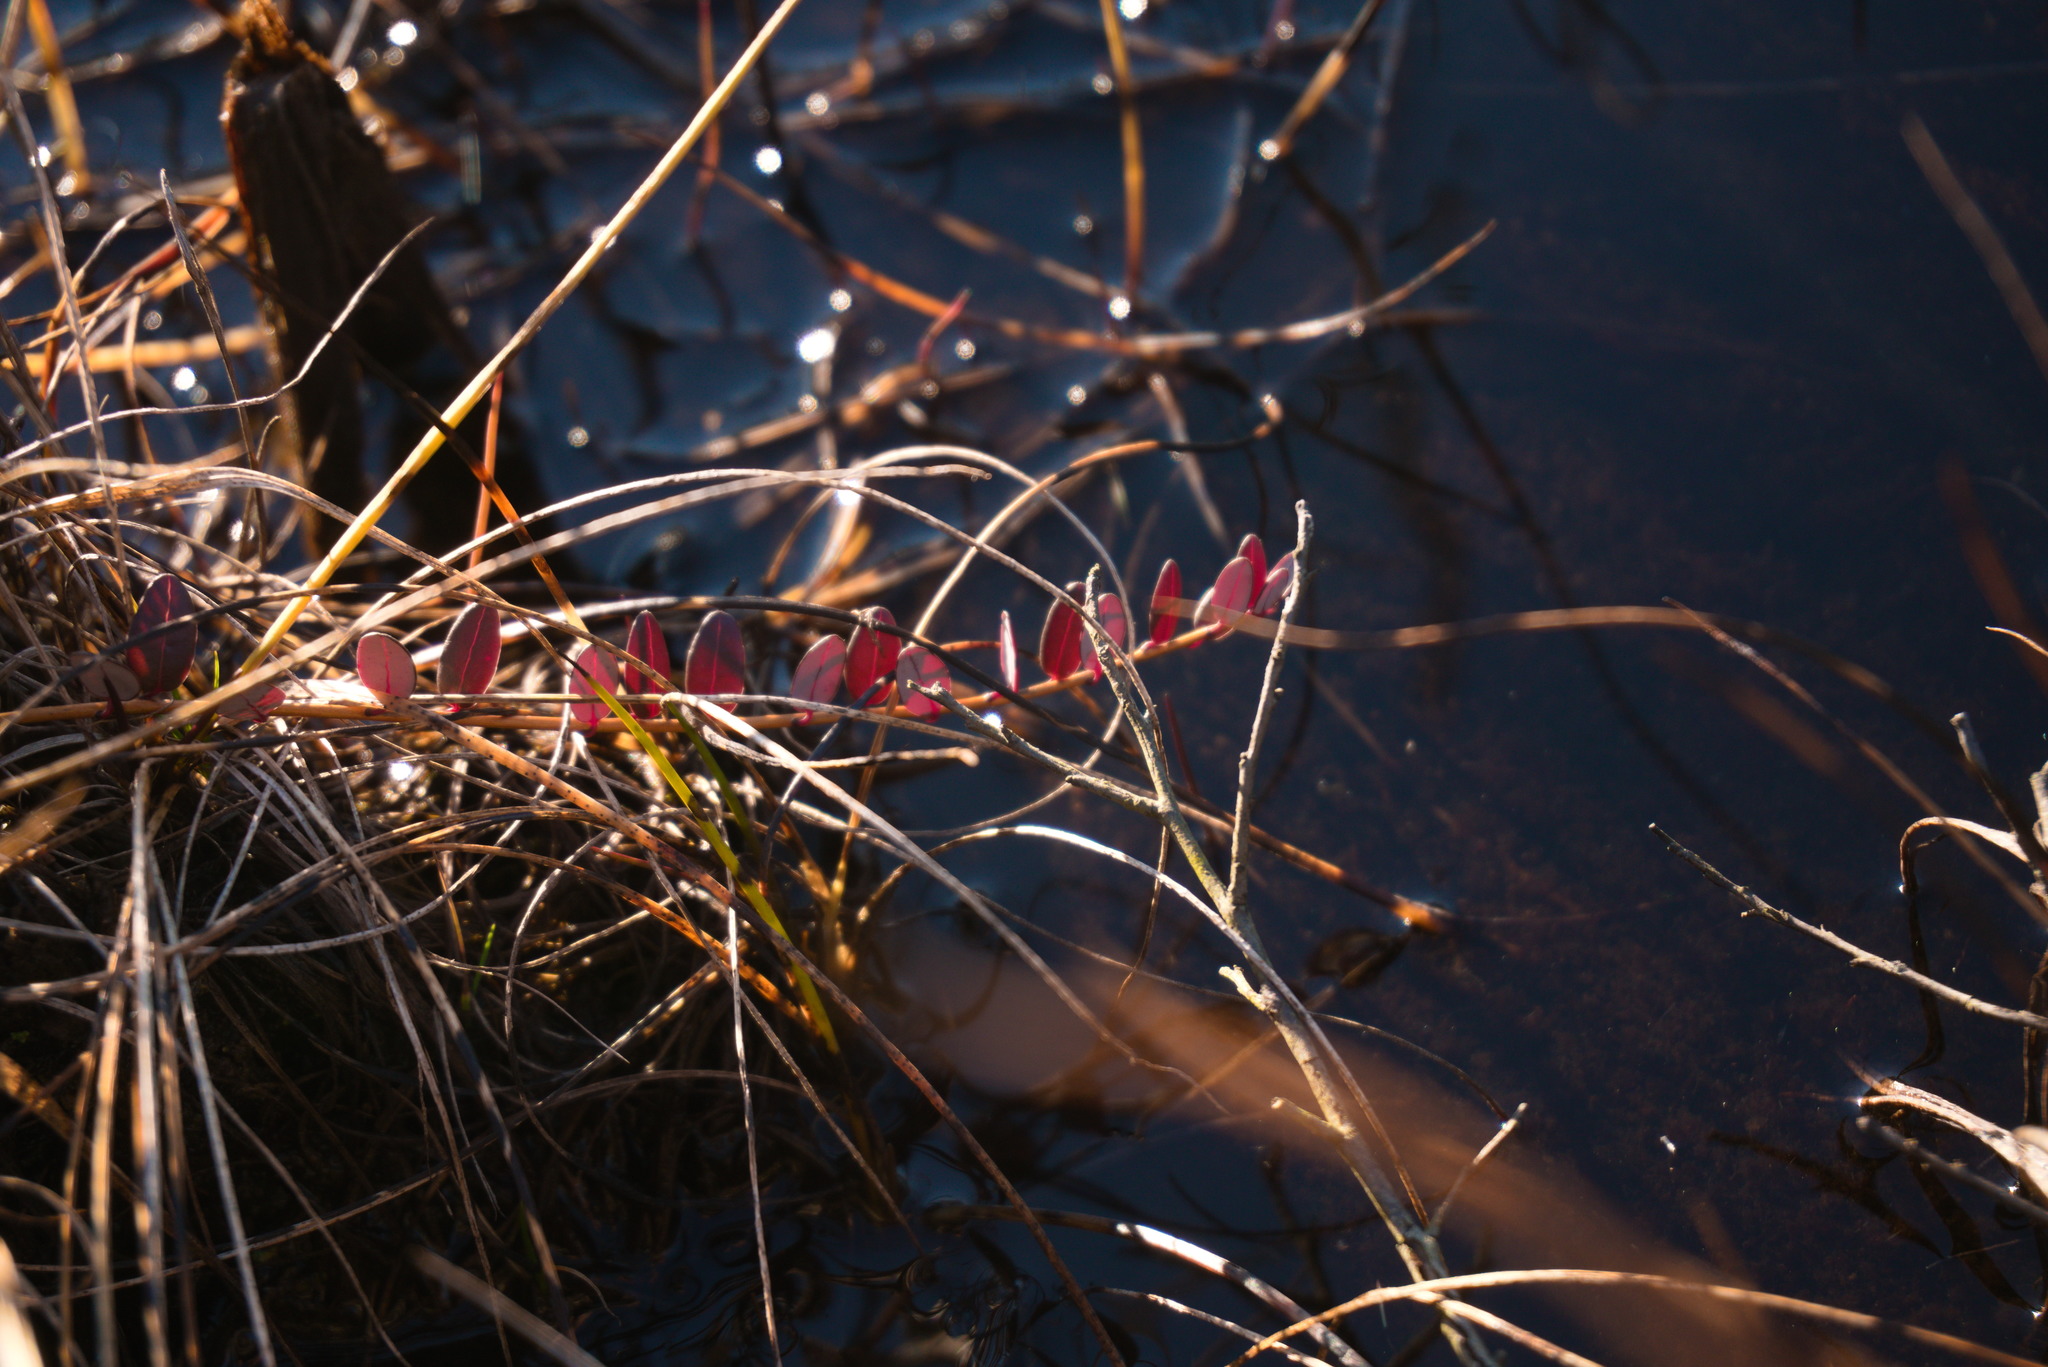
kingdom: Plantae
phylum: Tracheophyta
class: Magnoliopsida
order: Ericales
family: Ericaceae
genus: Vaccinium
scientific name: Vaccinium macrocarpon
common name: American cranberry
